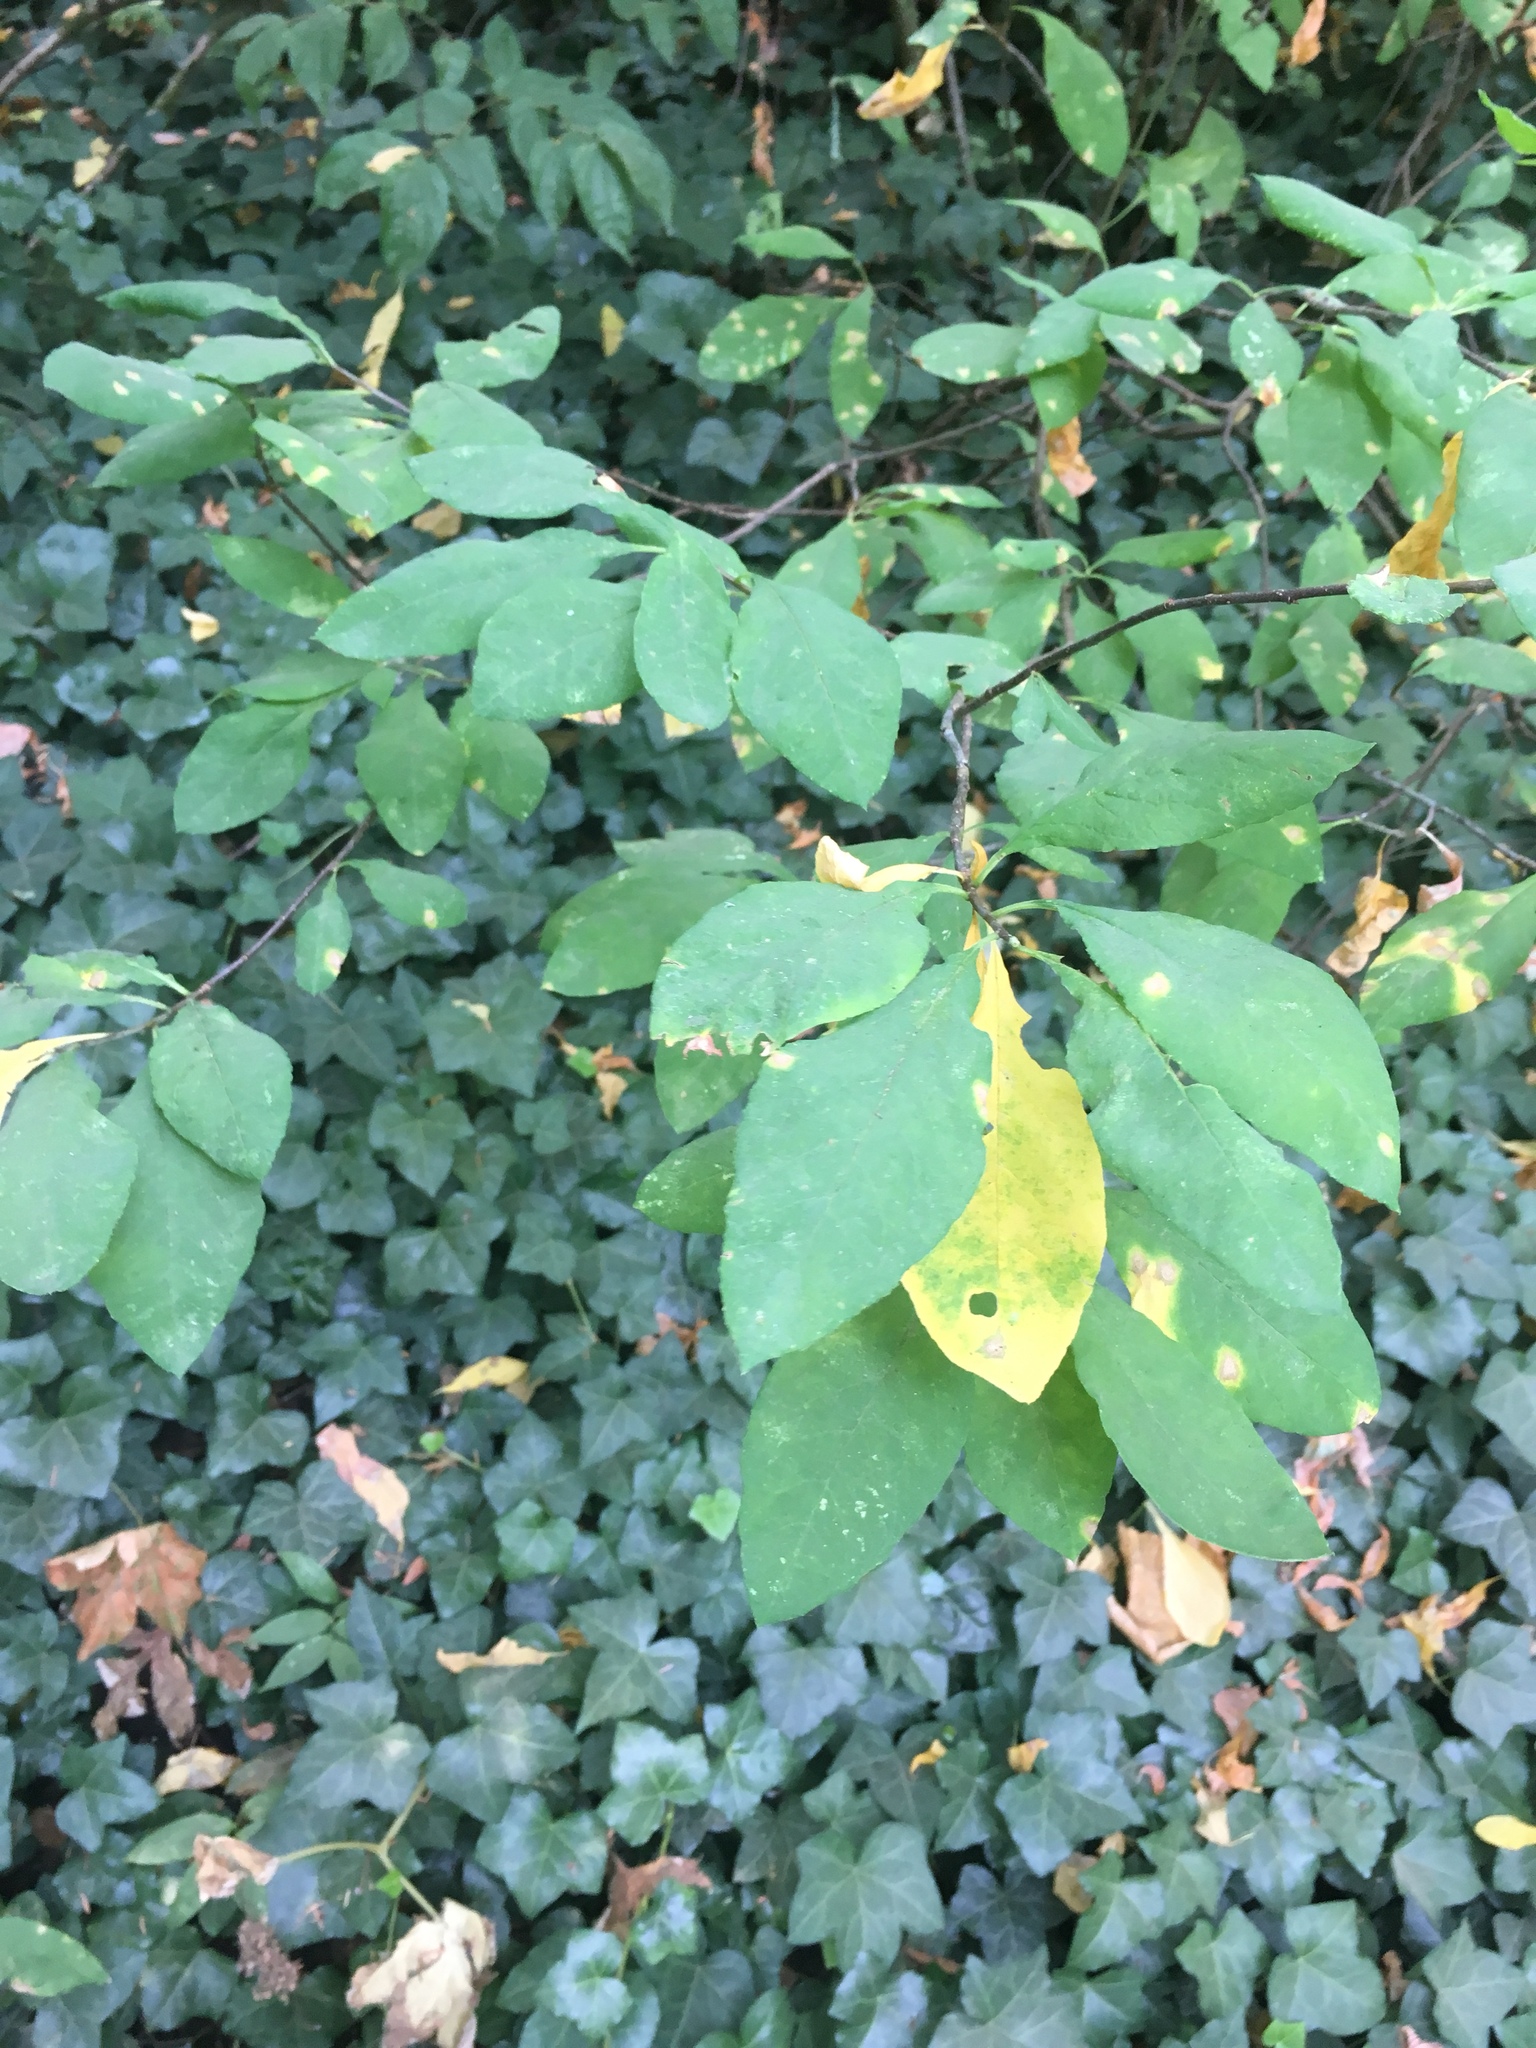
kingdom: Plantae
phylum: Tracheophyta
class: Magnoliopsida
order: Rosales
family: Rosaceae
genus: Oemleria
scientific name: Oemleria cerasiformis
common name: Osoberry
